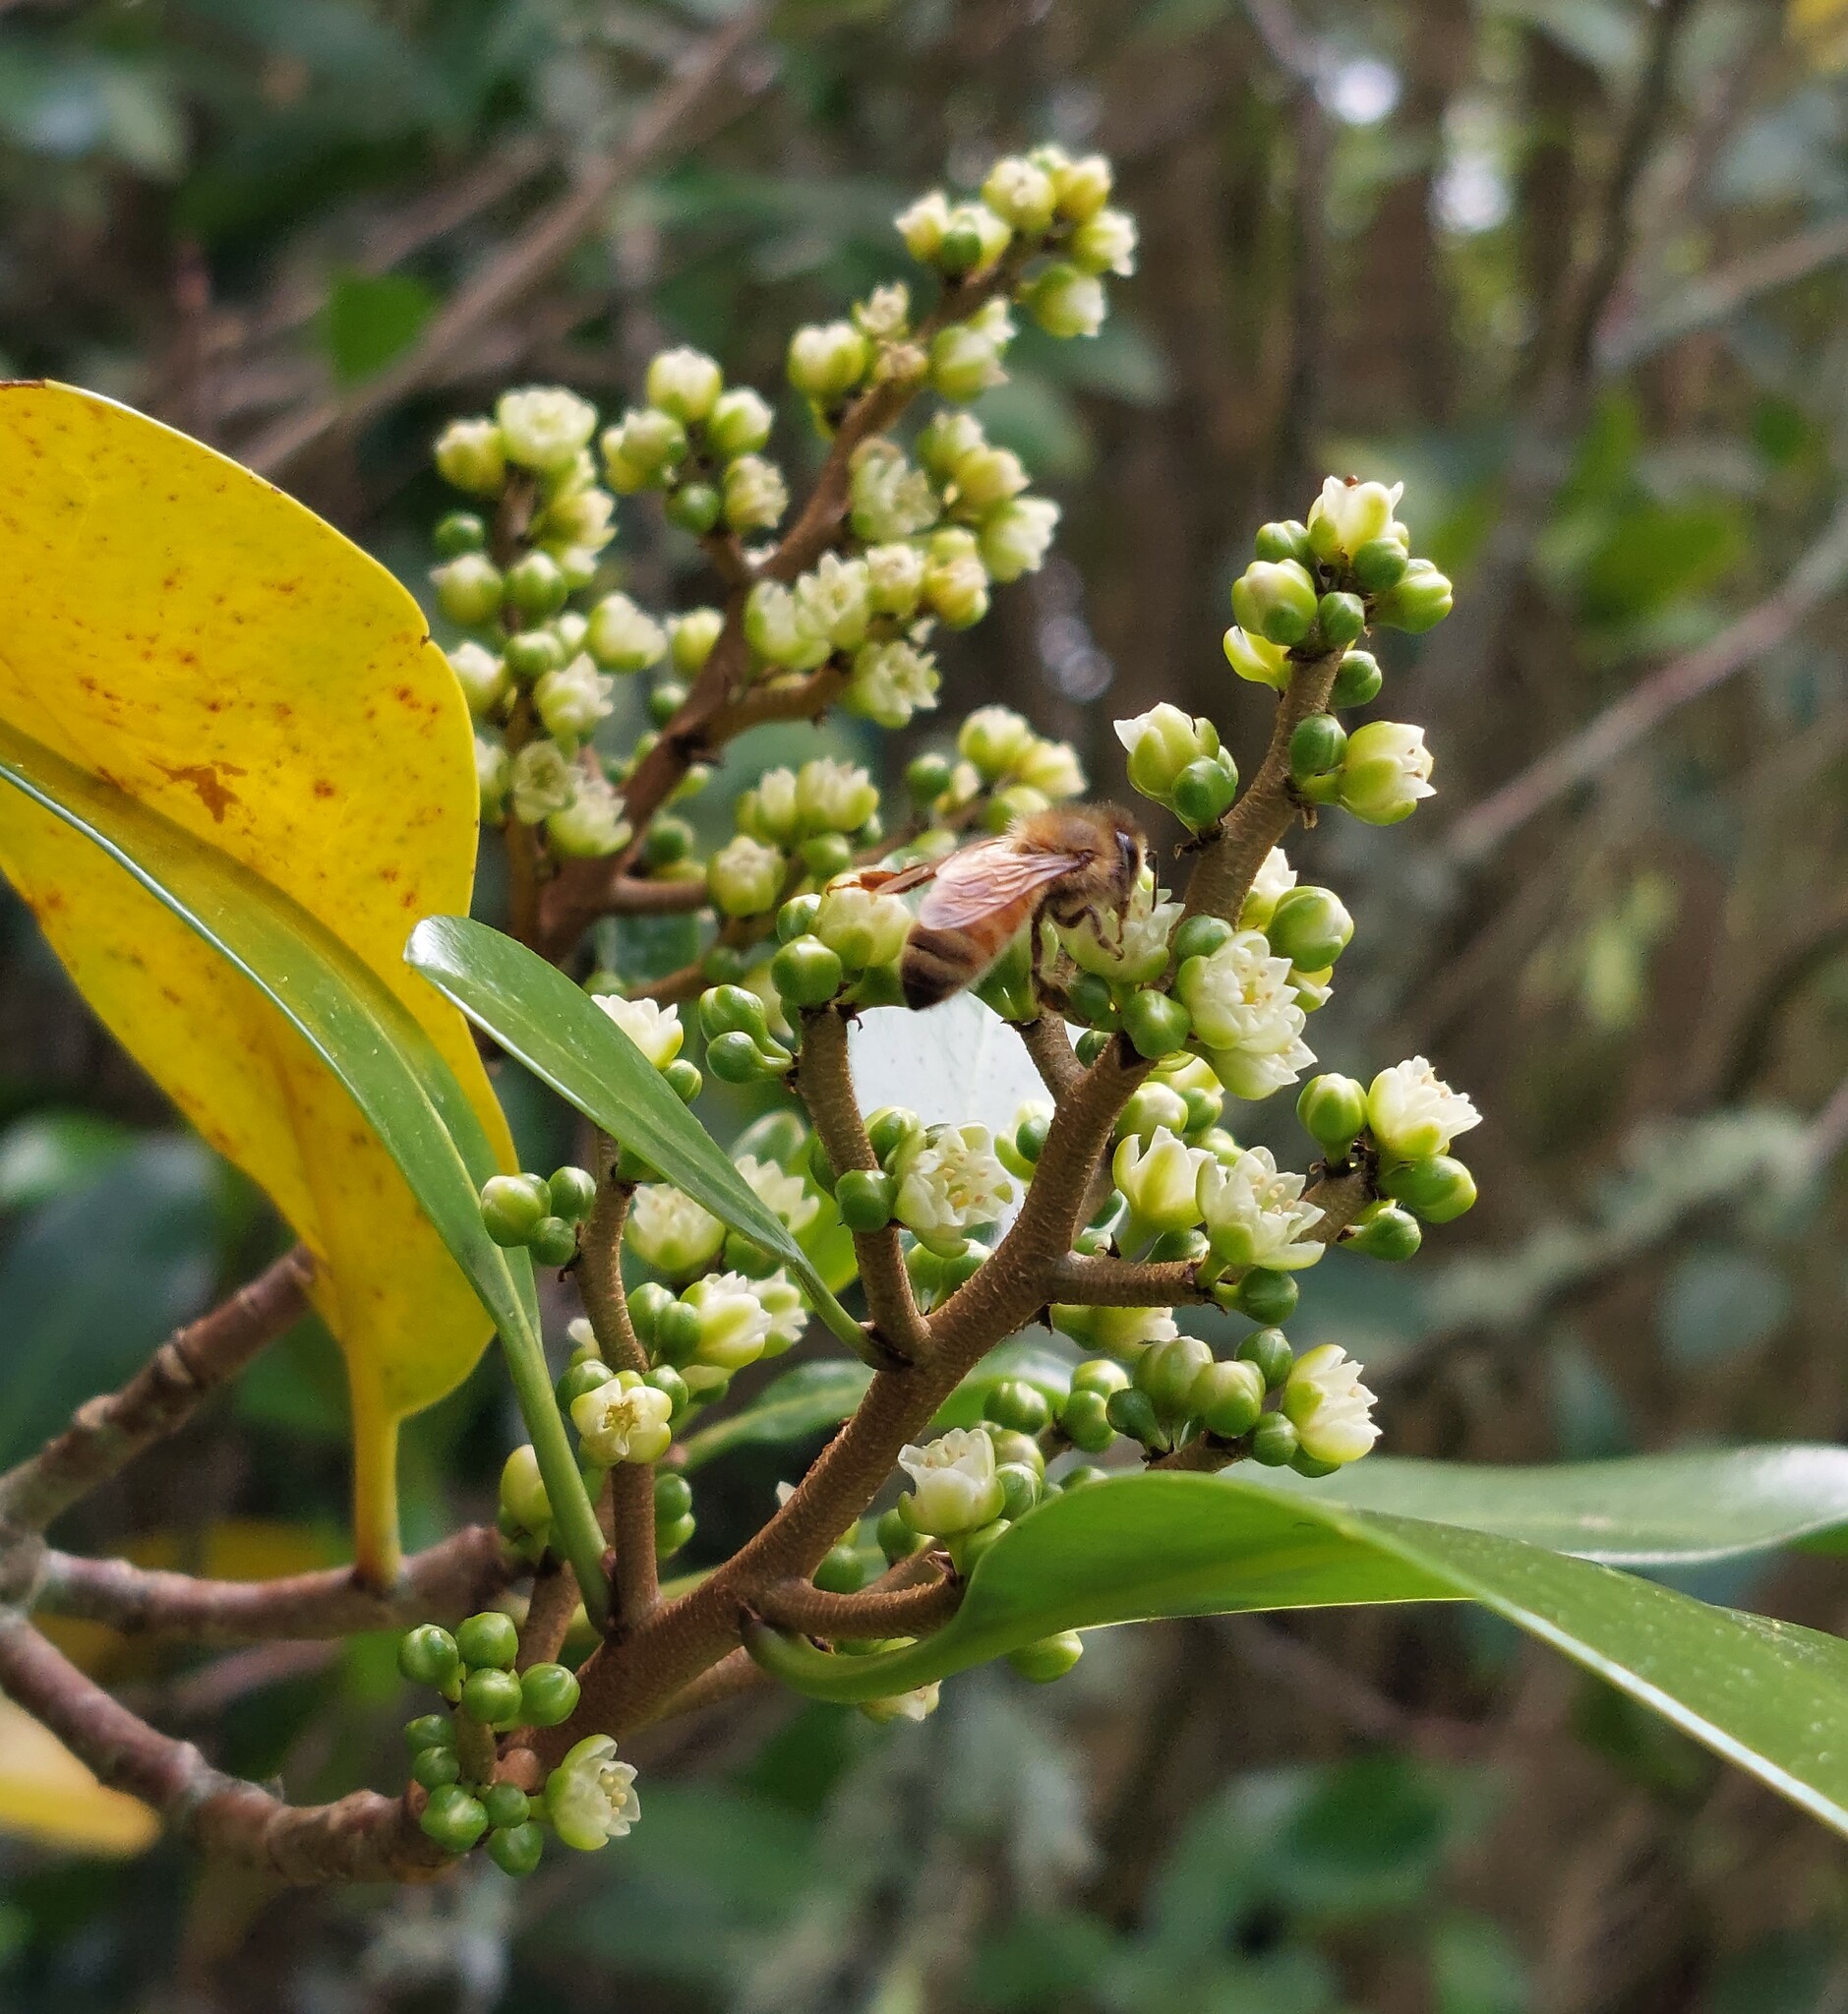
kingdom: Animalia
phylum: Arthropoda
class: Insecta
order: Hymenoptera
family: Apidae
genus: Apis
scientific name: Apis mellifera
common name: Honey bee
